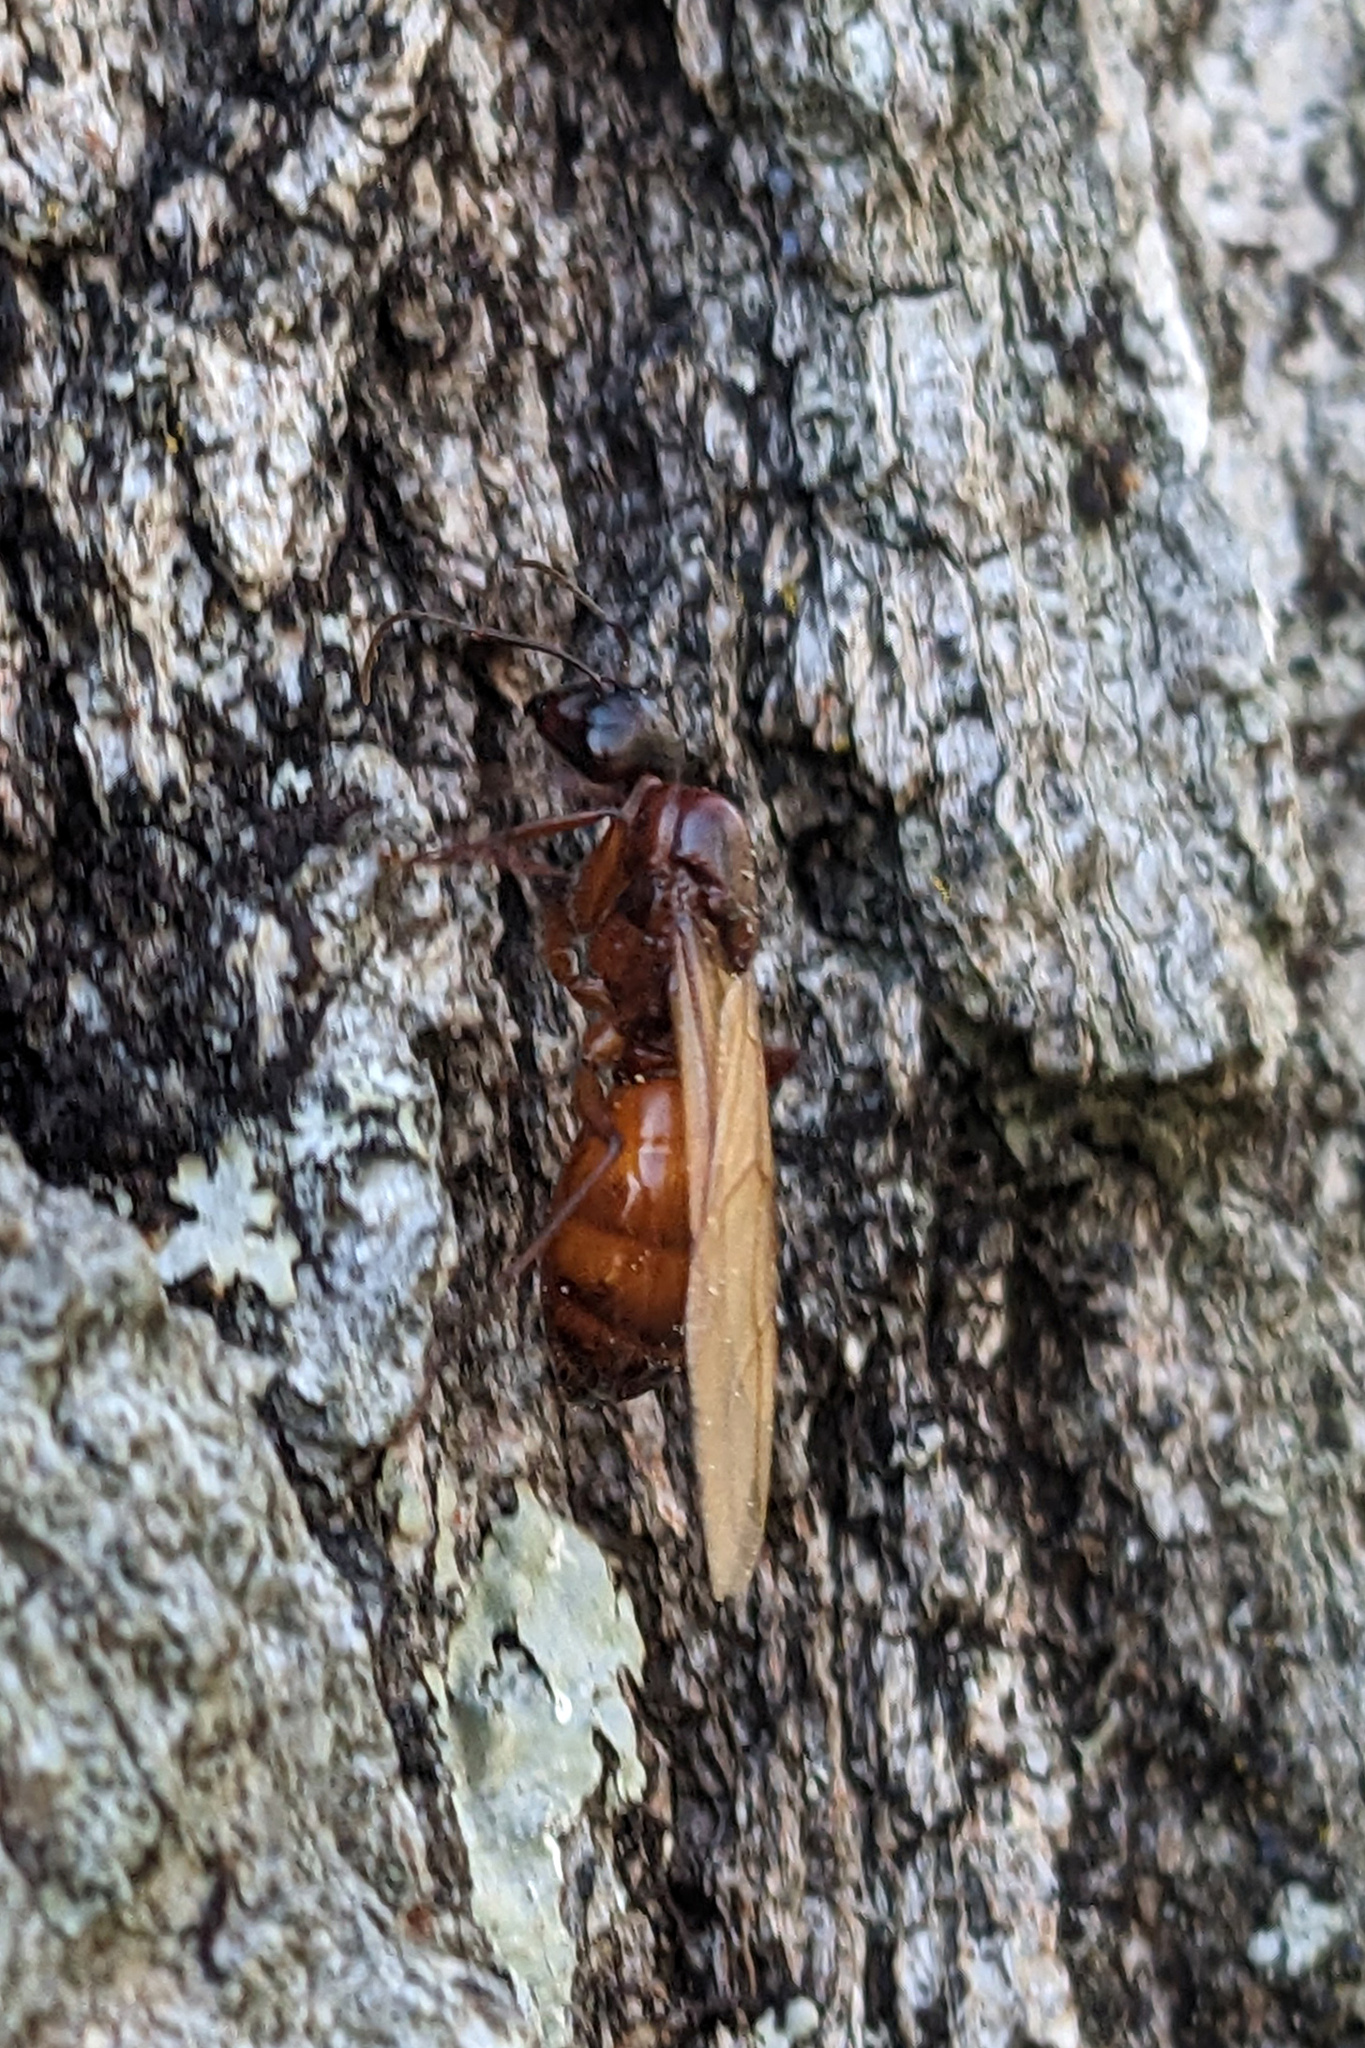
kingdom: Animalia
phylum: Arthropoda
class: Insecta
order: Hymenoptera
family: Formicidae
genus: Camponotus
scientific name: Camponotus americanus
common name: American carpenter ant
